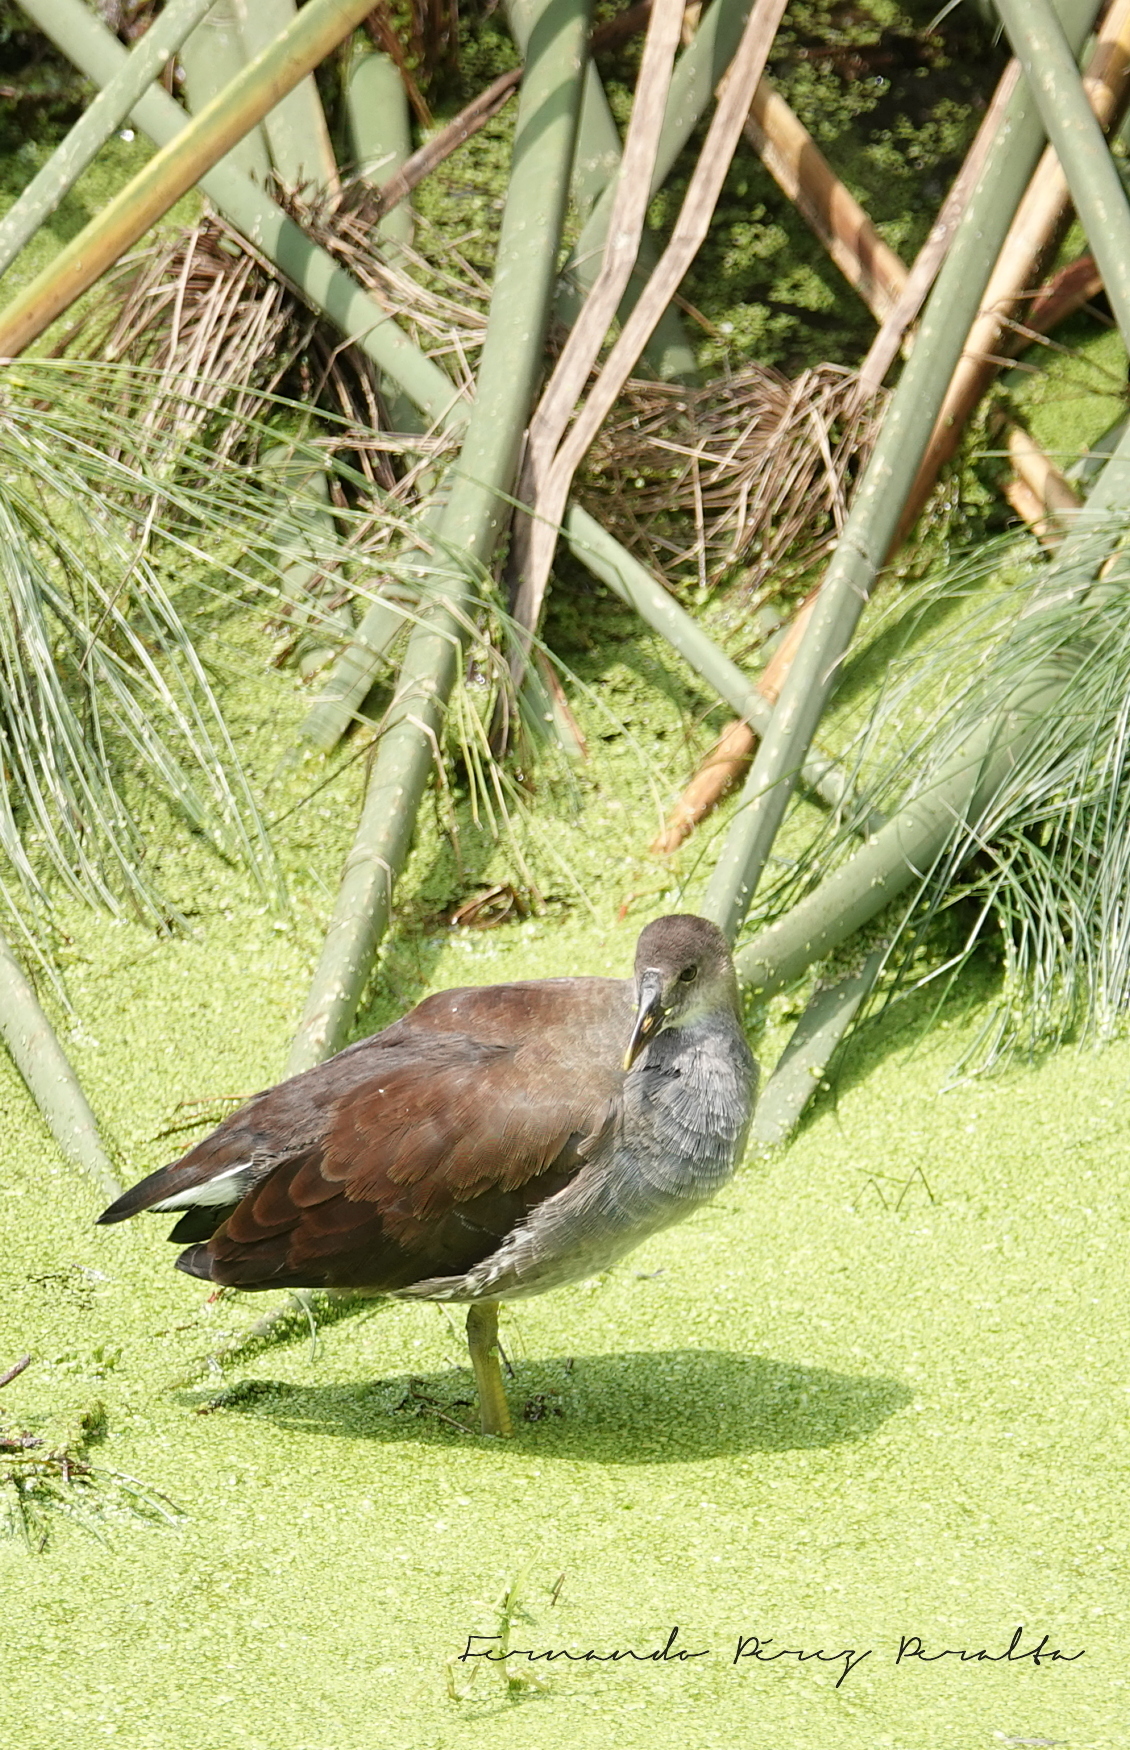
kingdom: Animalia
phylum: Chordata
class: Aves
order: Gruiformes
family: Rallidae
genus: Gallinula
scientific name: Gallinula chloropus
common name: Common moorhen
